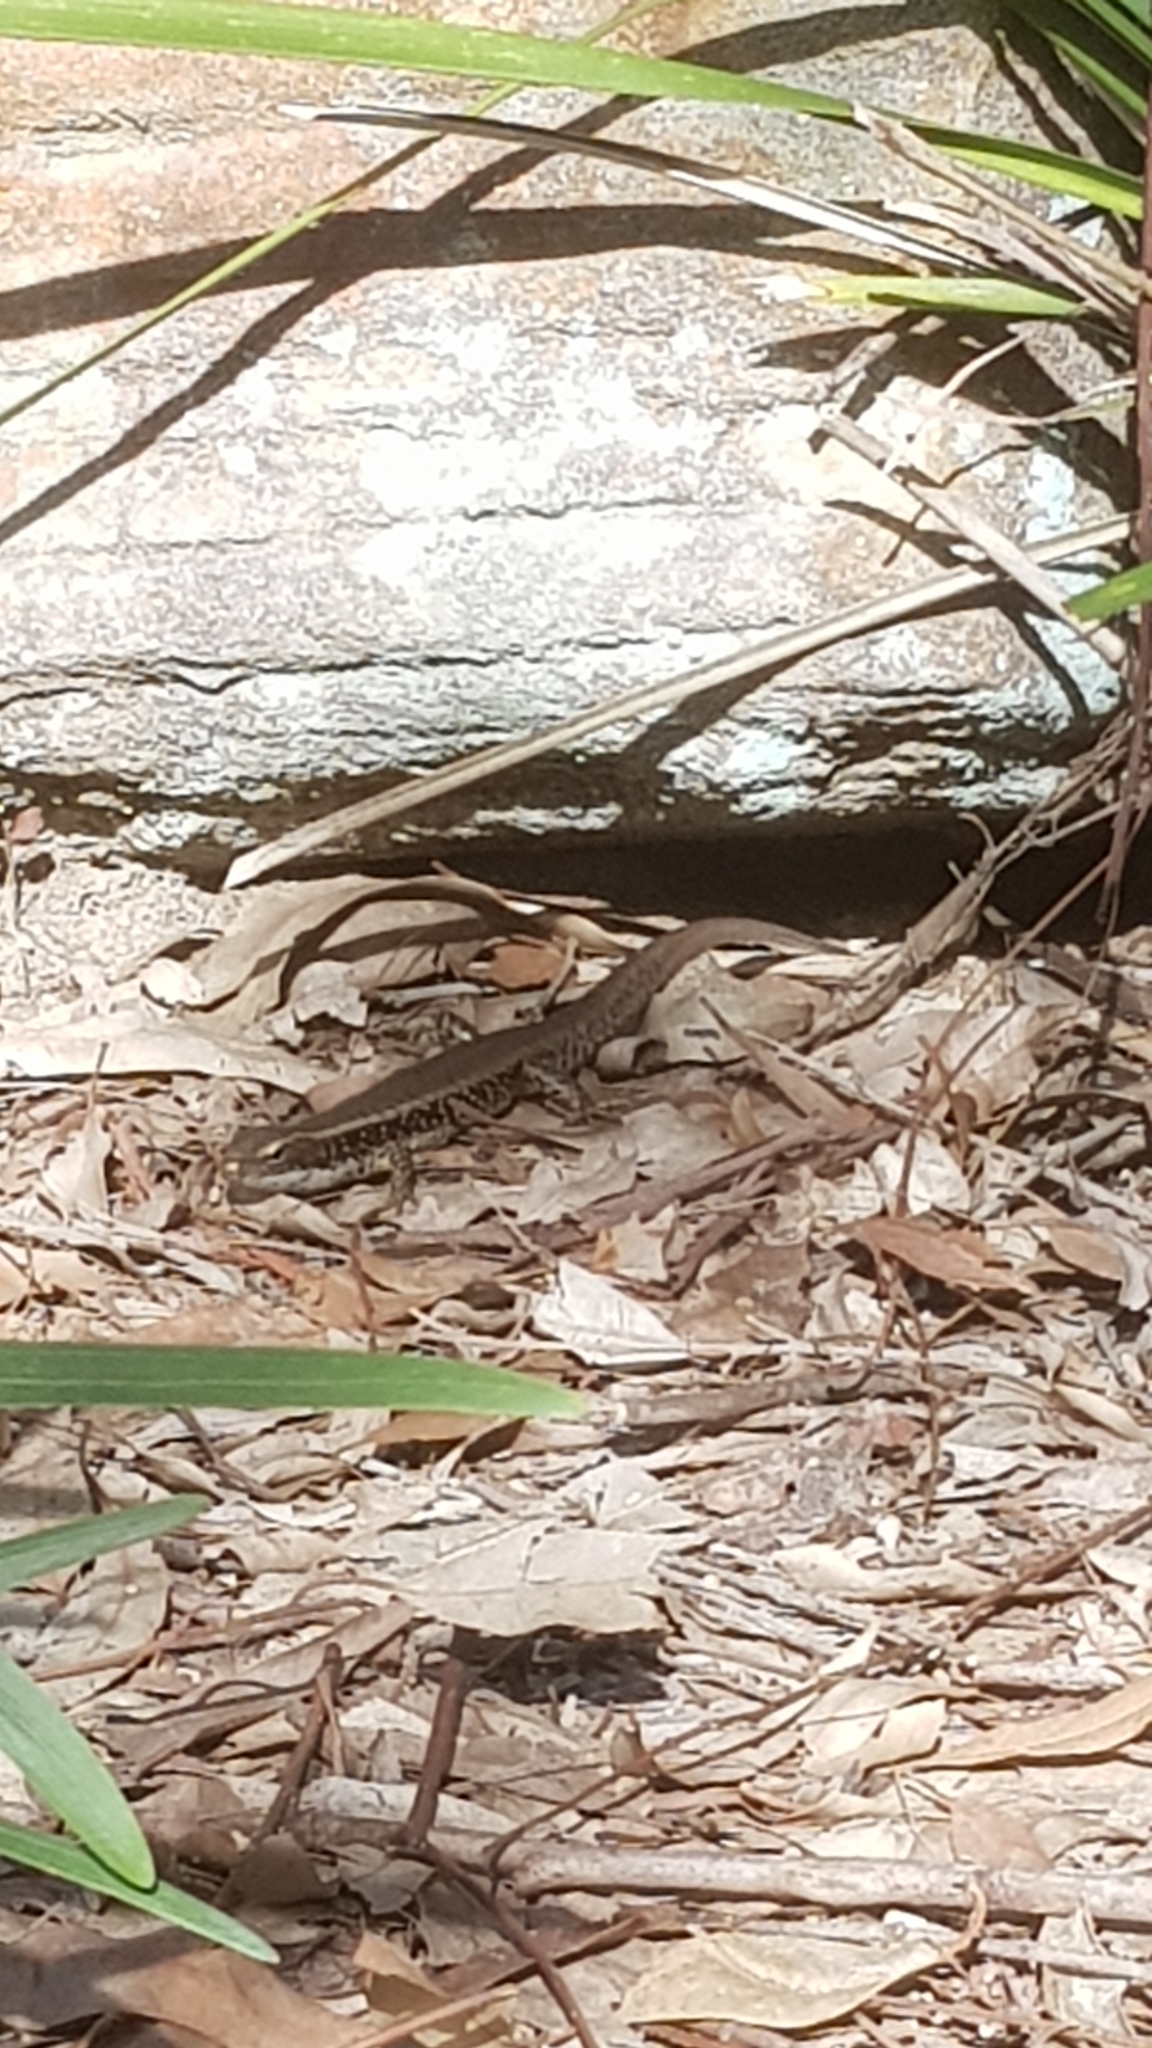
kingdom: Animalia
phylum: Chordata
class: Squamata
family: Scincidae
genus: Eulamprus
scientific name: Eulamprus quoyii
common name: Eastern water skink
